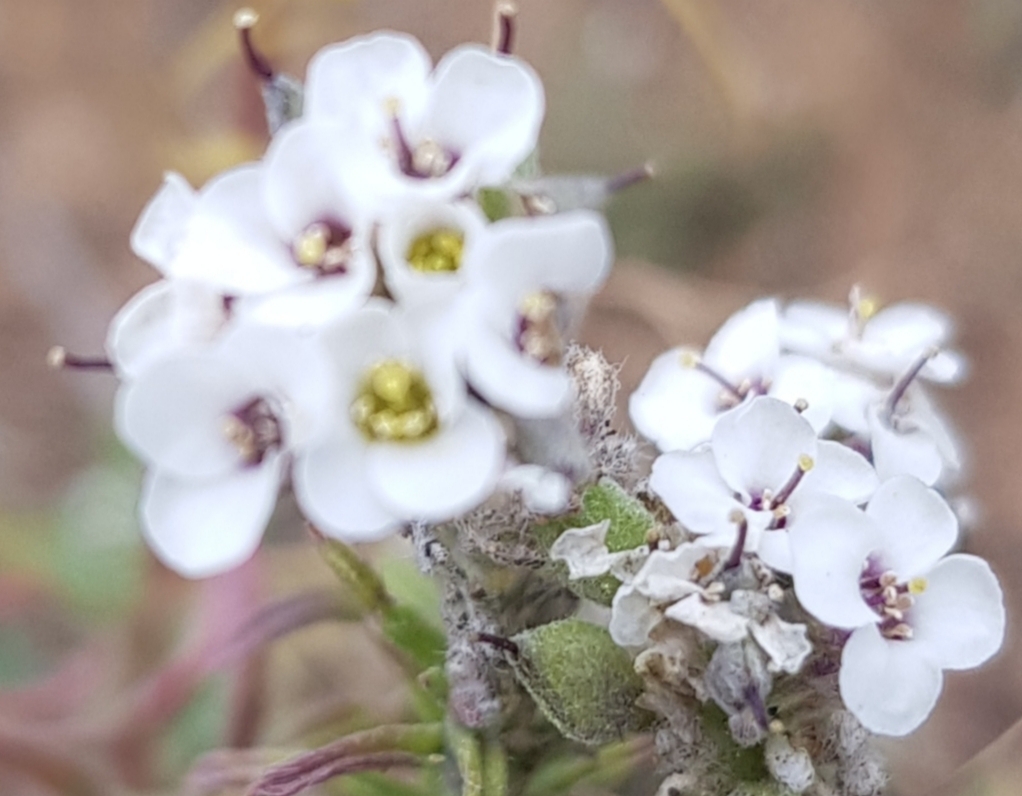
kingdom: Plantae
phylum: Tracheophyta
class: Magnoliopsida
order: Brassicales
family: Brassicaceae
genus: Stevenia
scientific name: Stevenia tenuifolia
